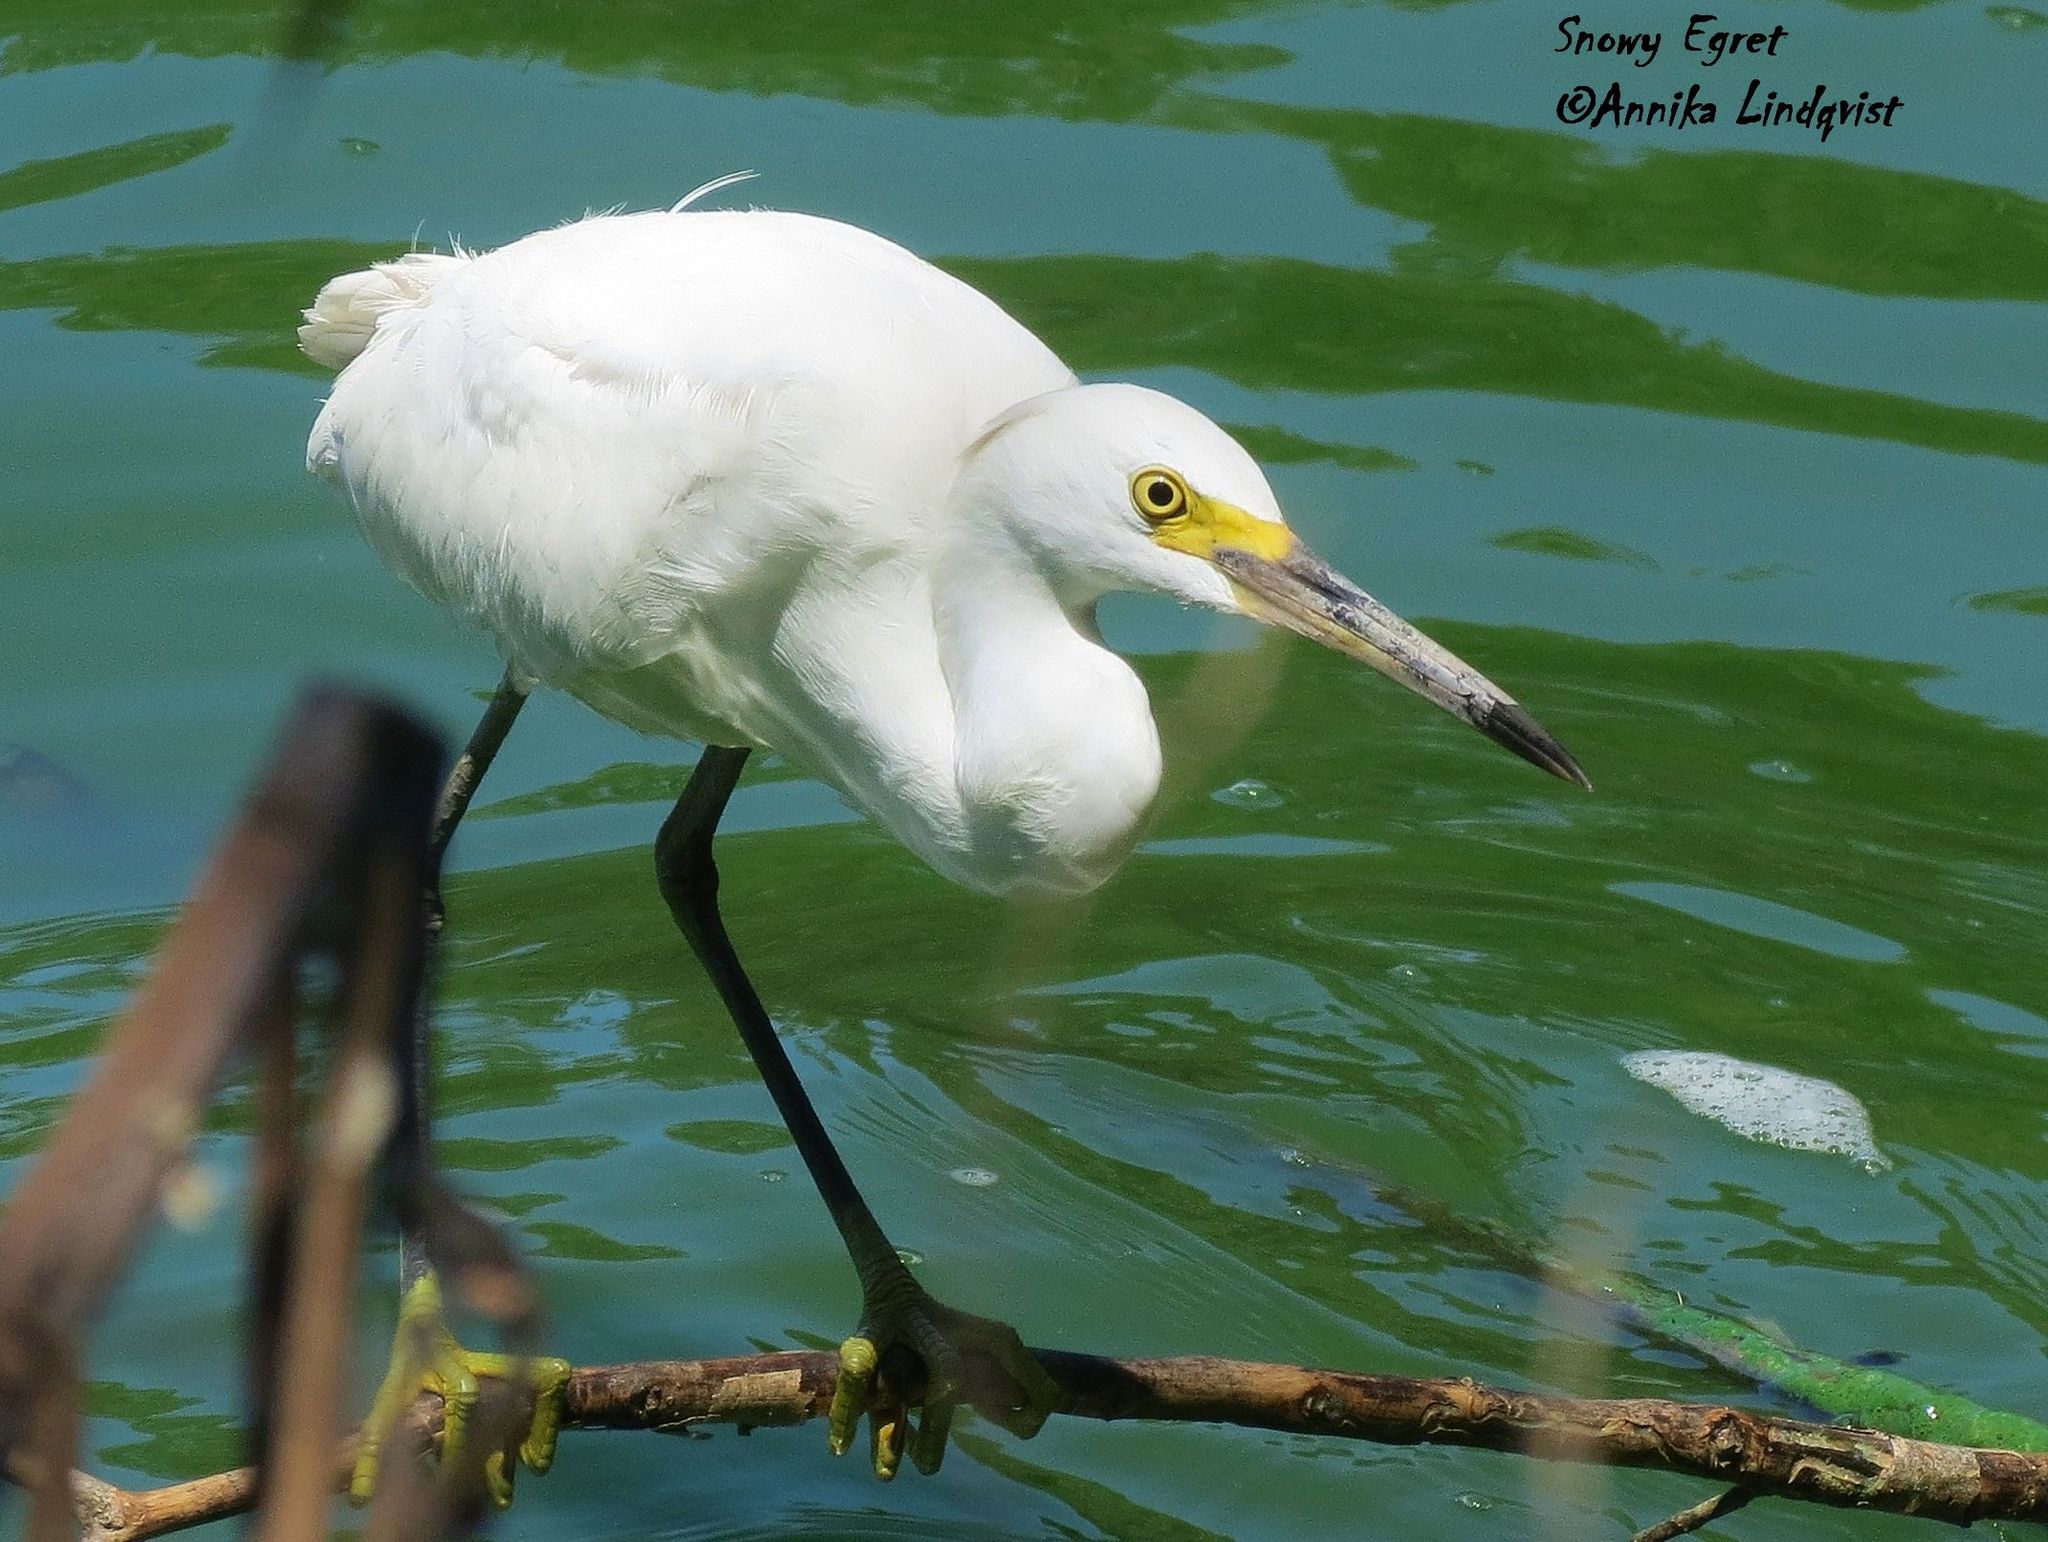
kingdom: Animalia
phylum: Chordata
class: Aves
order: Pelecaniformes
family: Ardeidae
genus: Egretta
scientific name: Egretta thula
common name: Snowy egret
